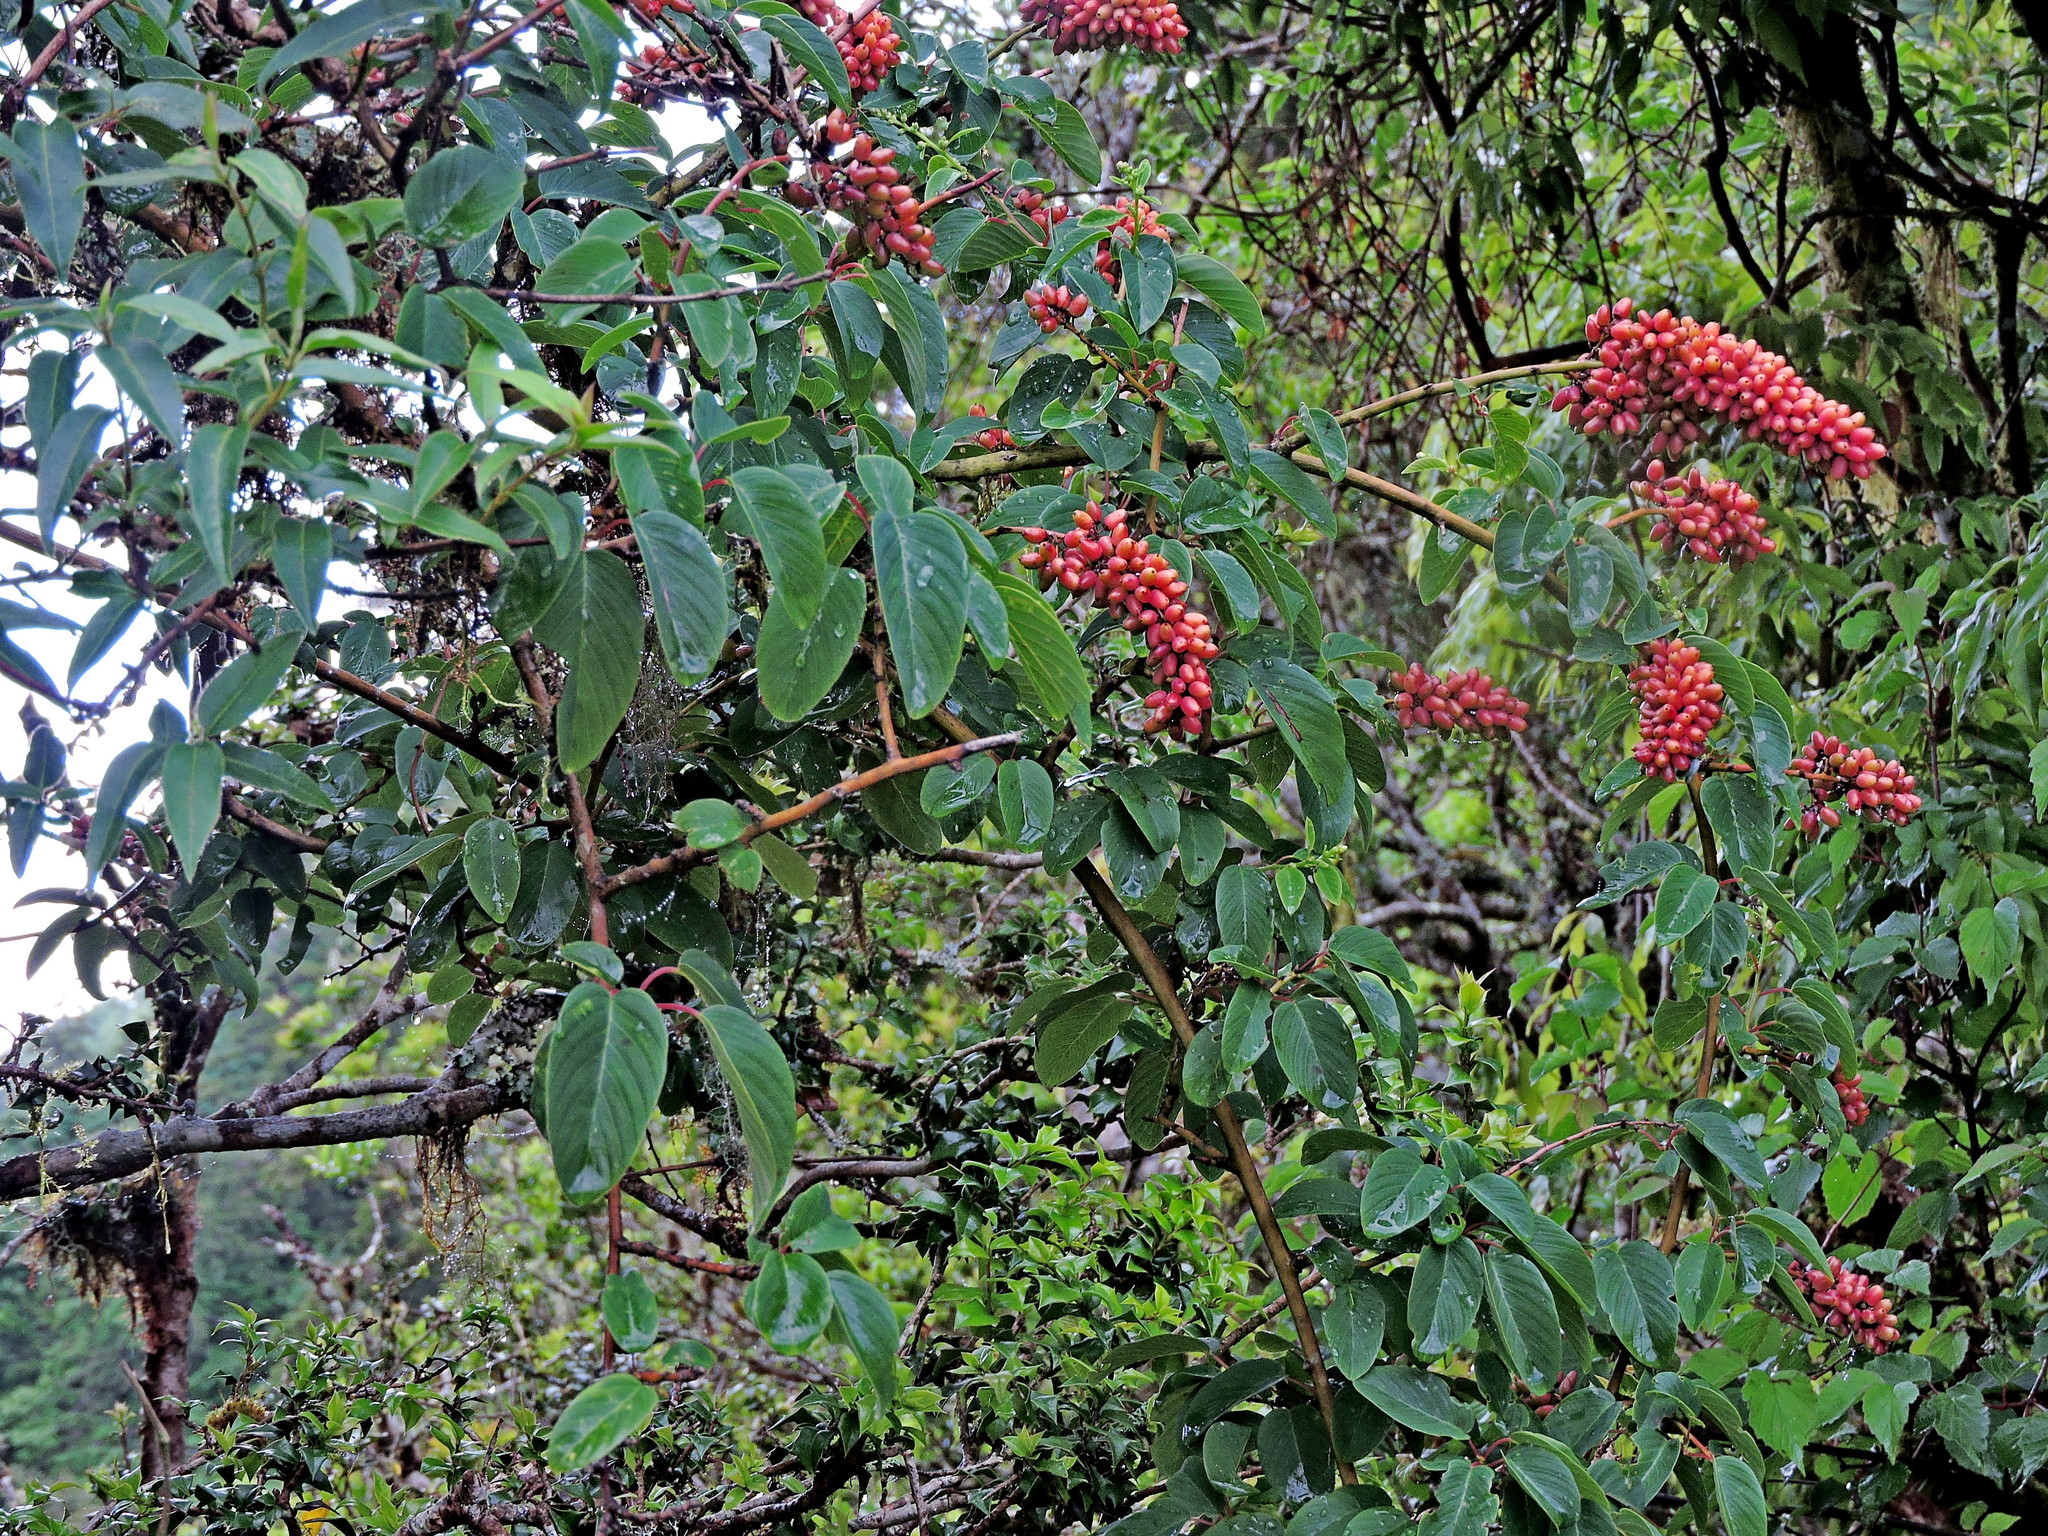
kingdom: Plantae
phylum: Tracheophyta
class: Magnoliopsida
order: Rosales
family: Rhamnaceae
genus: Berchemia
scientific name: Berchemia formosana
